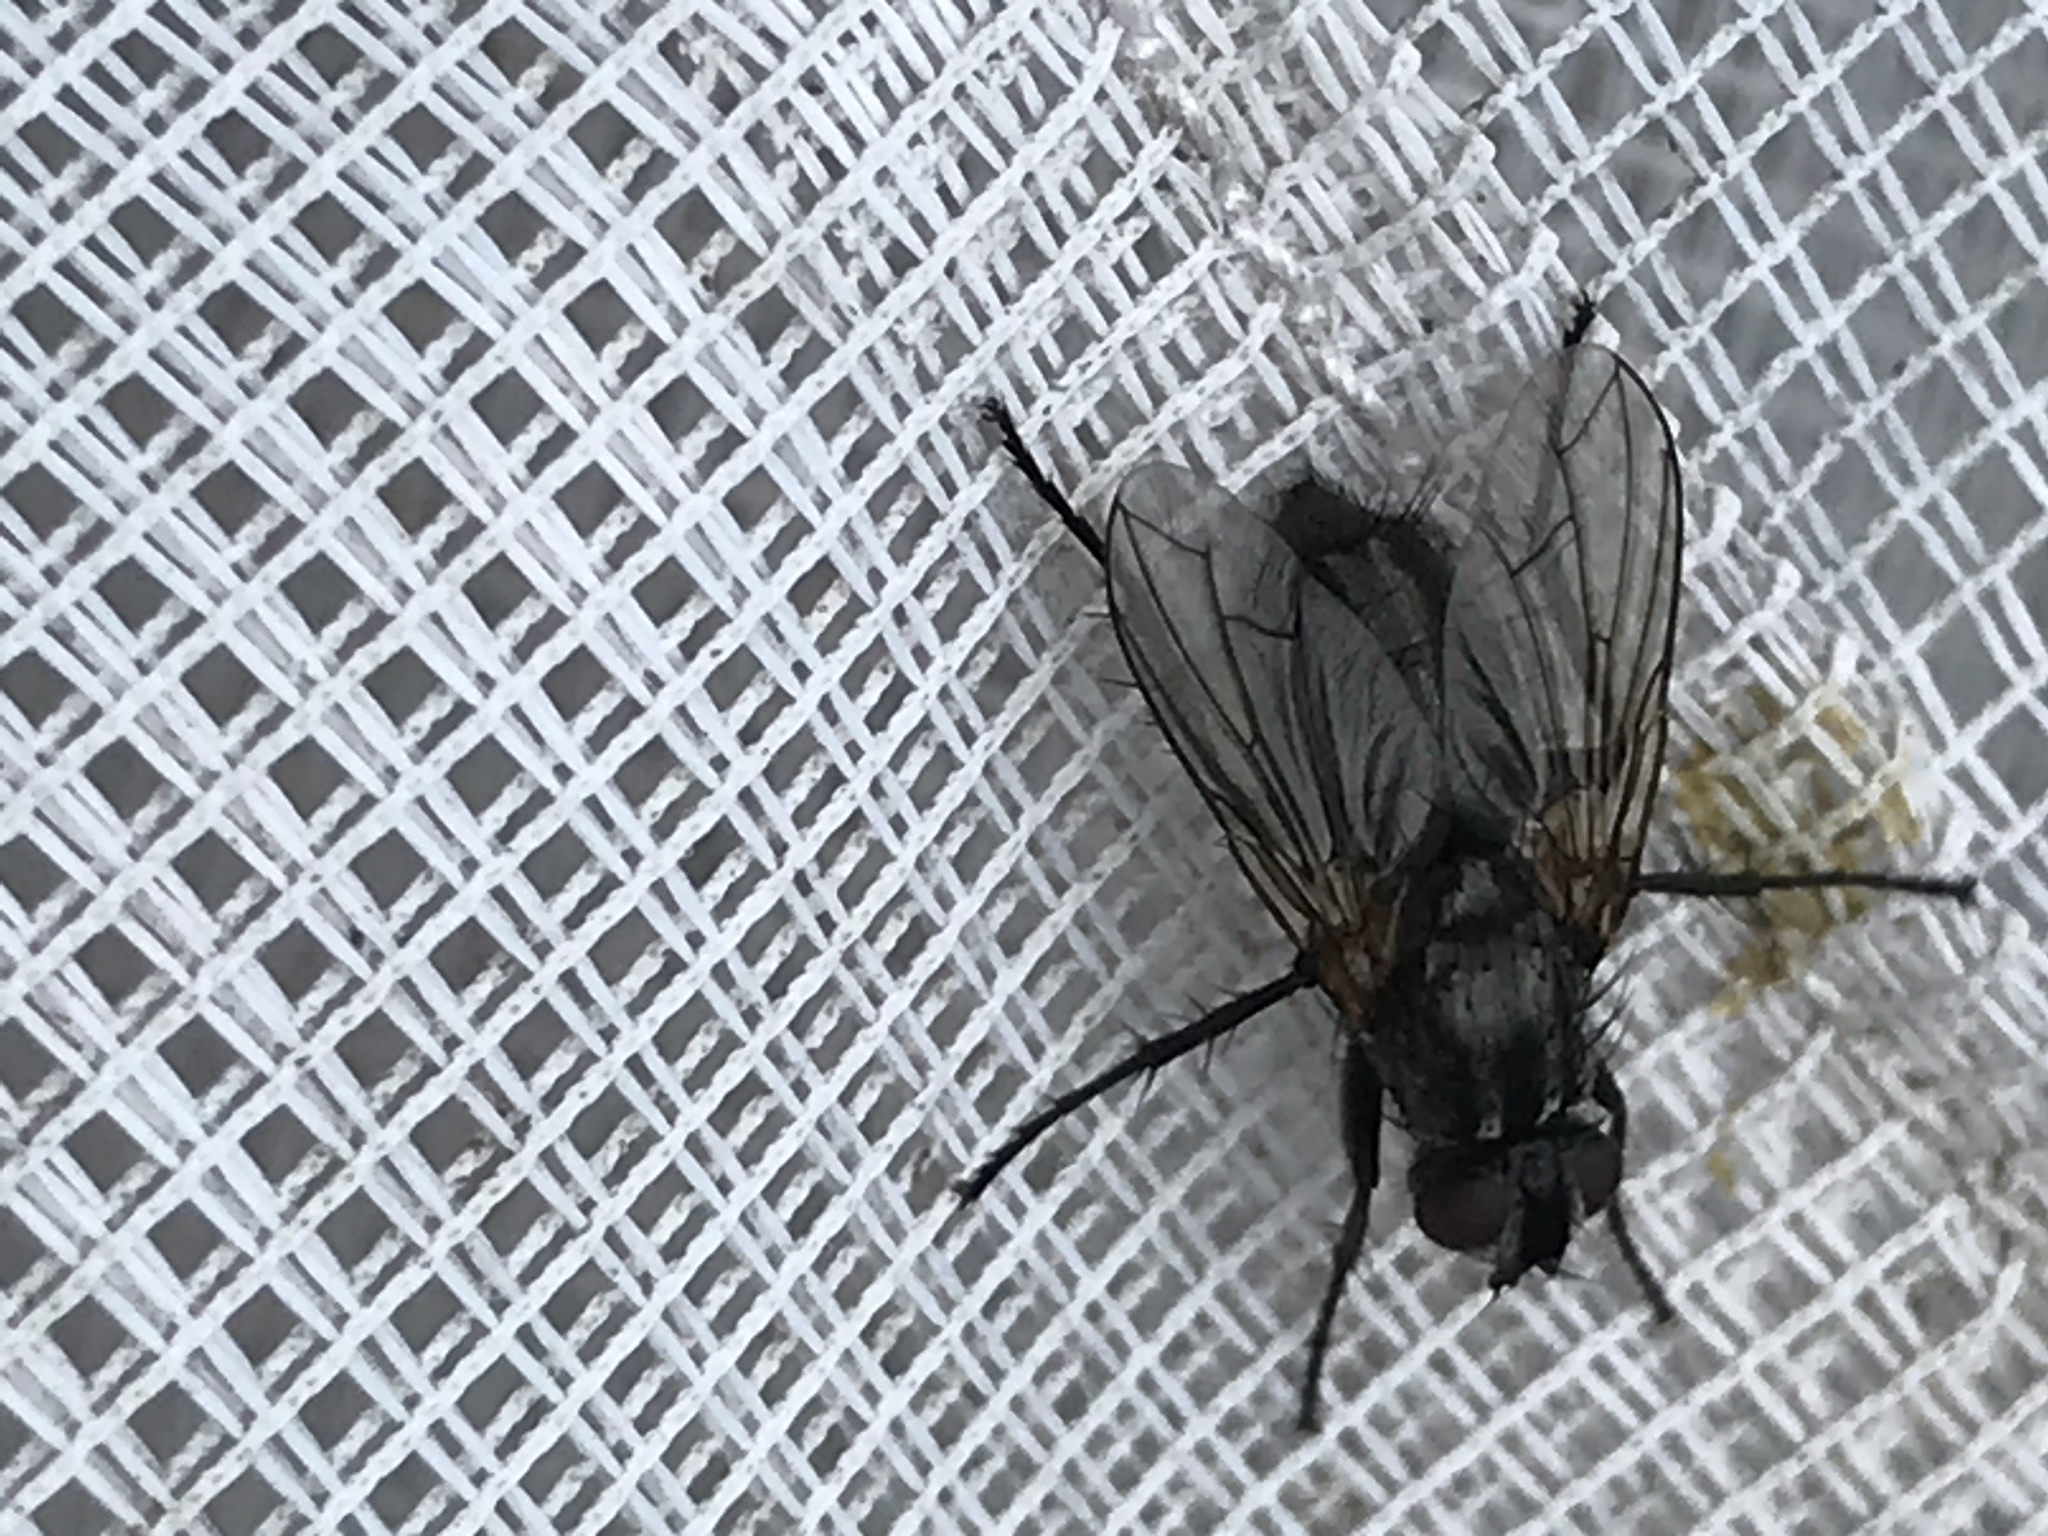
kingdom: Animalia
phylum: Arthropoda
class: Insecta
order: Diptera
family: Calliphoridae
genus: Phyto
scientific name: Phyto melanocephala
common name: Three-striped woodlouse-fly
